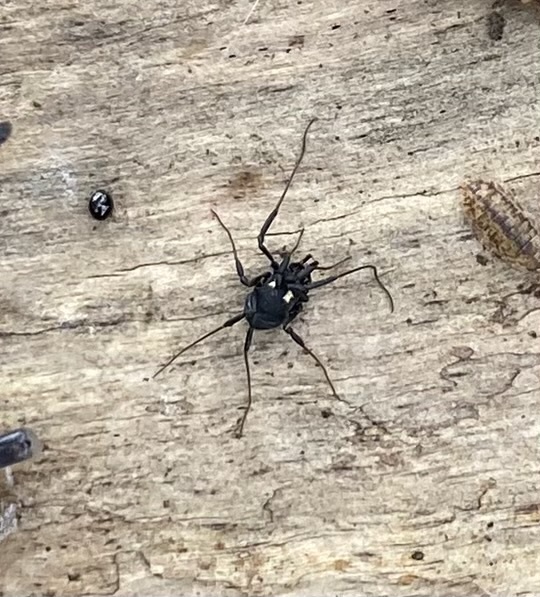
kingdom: Animalia
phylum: Arthropoda
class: Arachnida
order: Opiliones
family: Nemastomatidae
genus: Nemastoma
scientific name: Nemastoma bimaculatum
